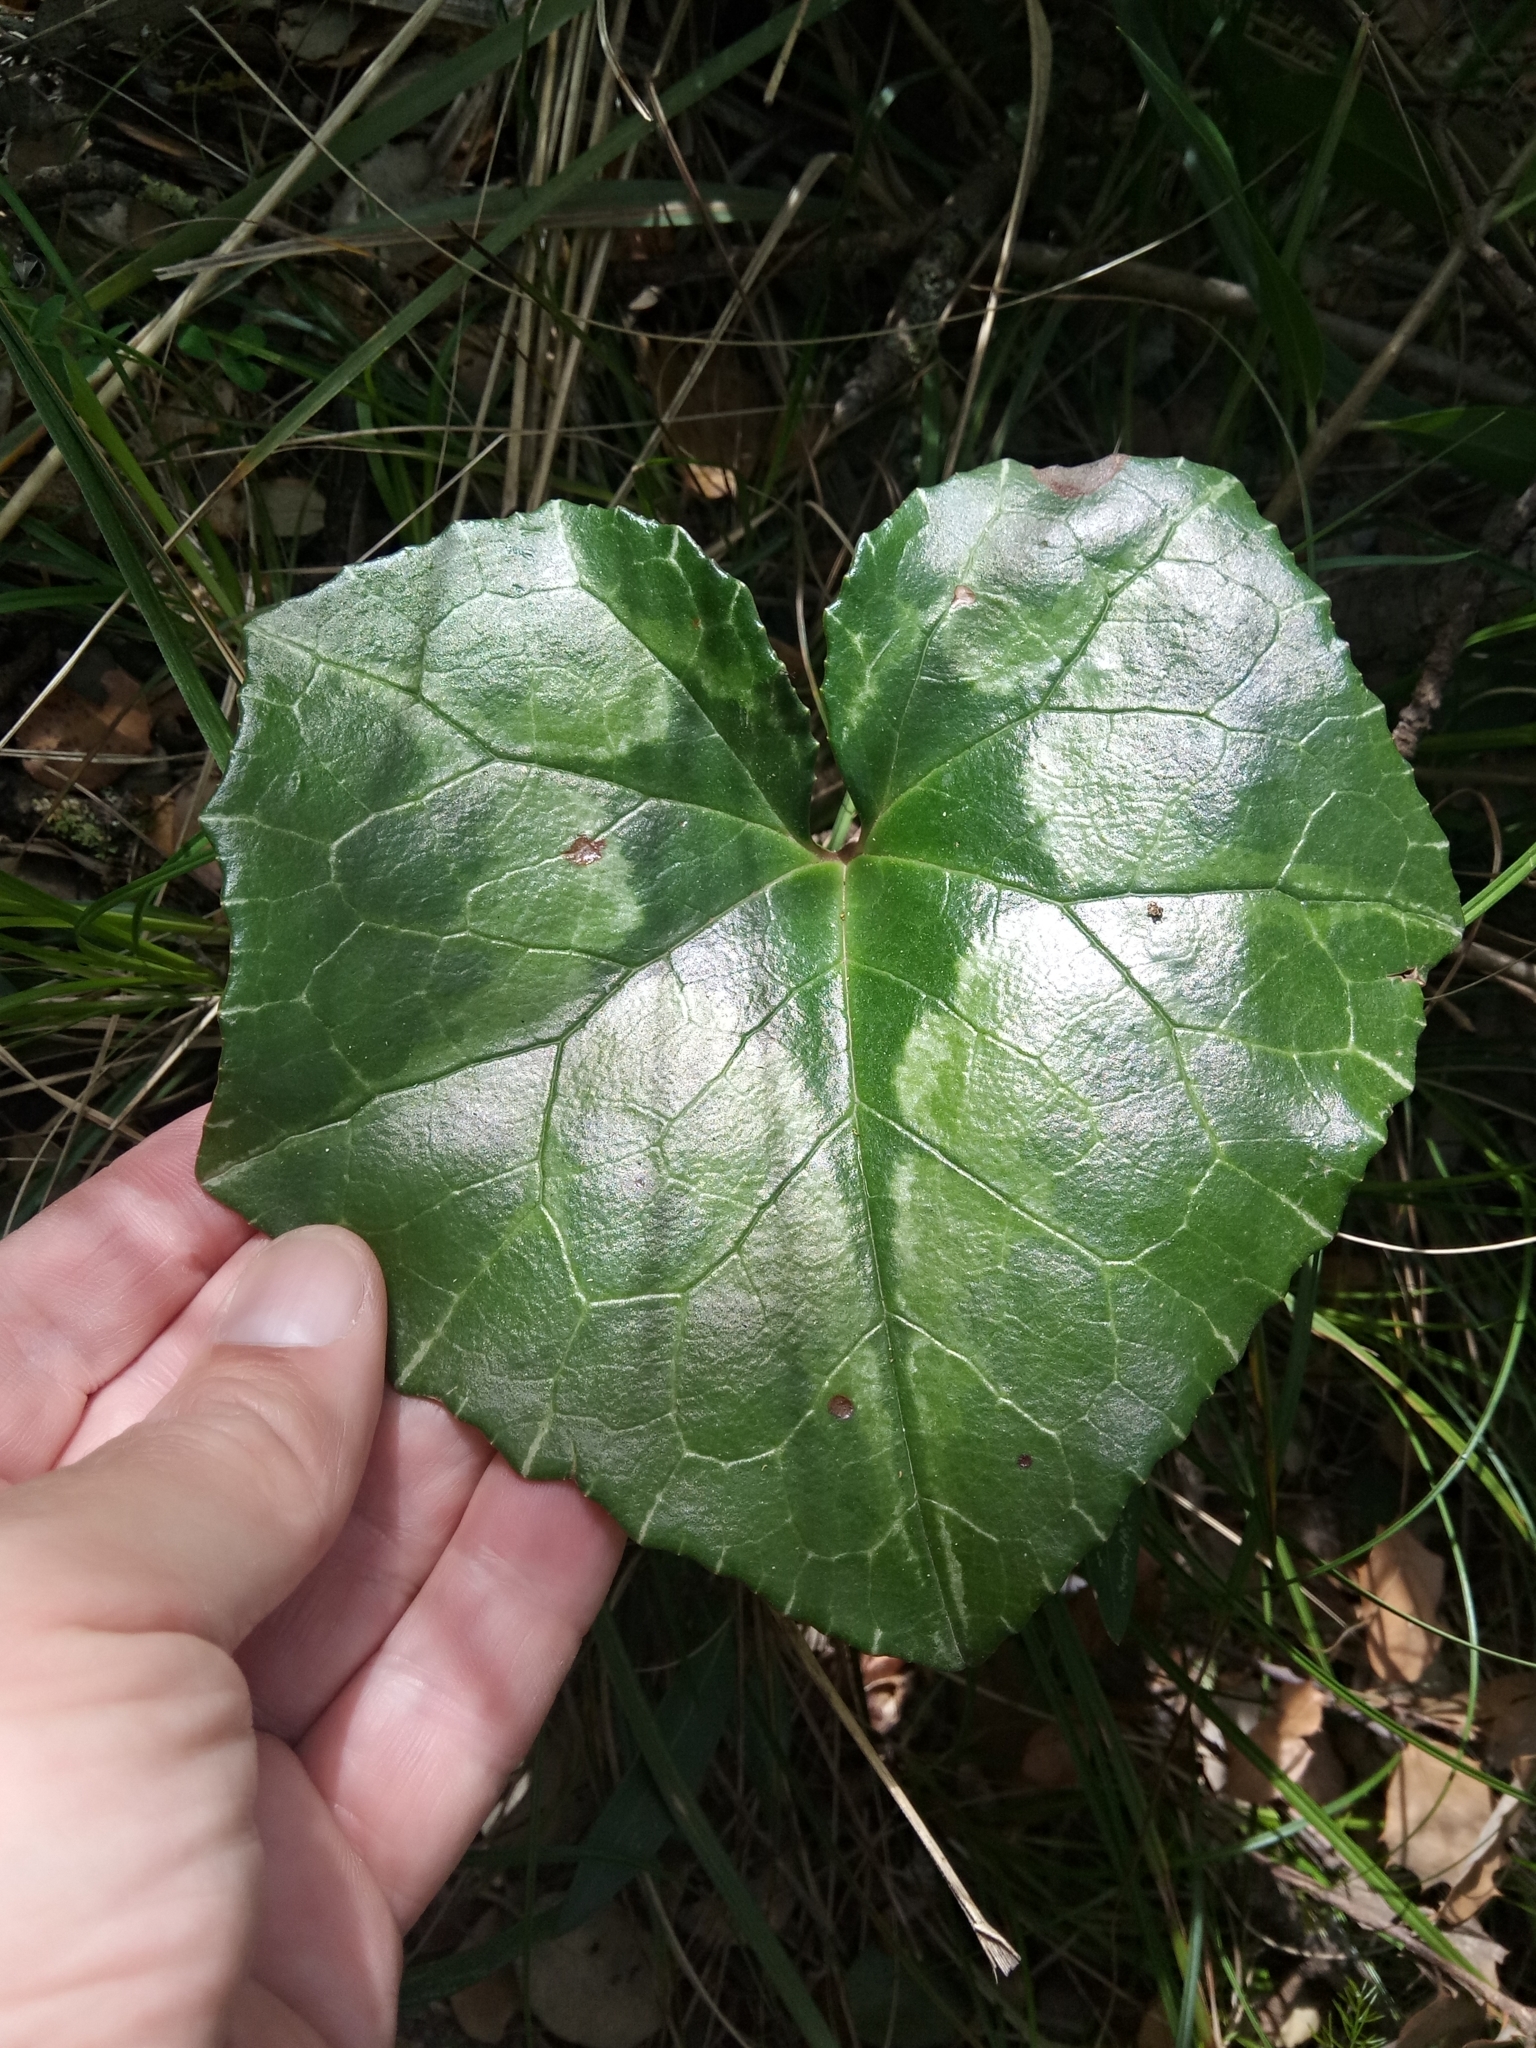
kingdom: Plantae
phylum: Tracheophyta
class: Magnoliopsida
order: Ericales
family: Primulaceae
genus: Cyclamen
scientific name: Cyclamen africanum
